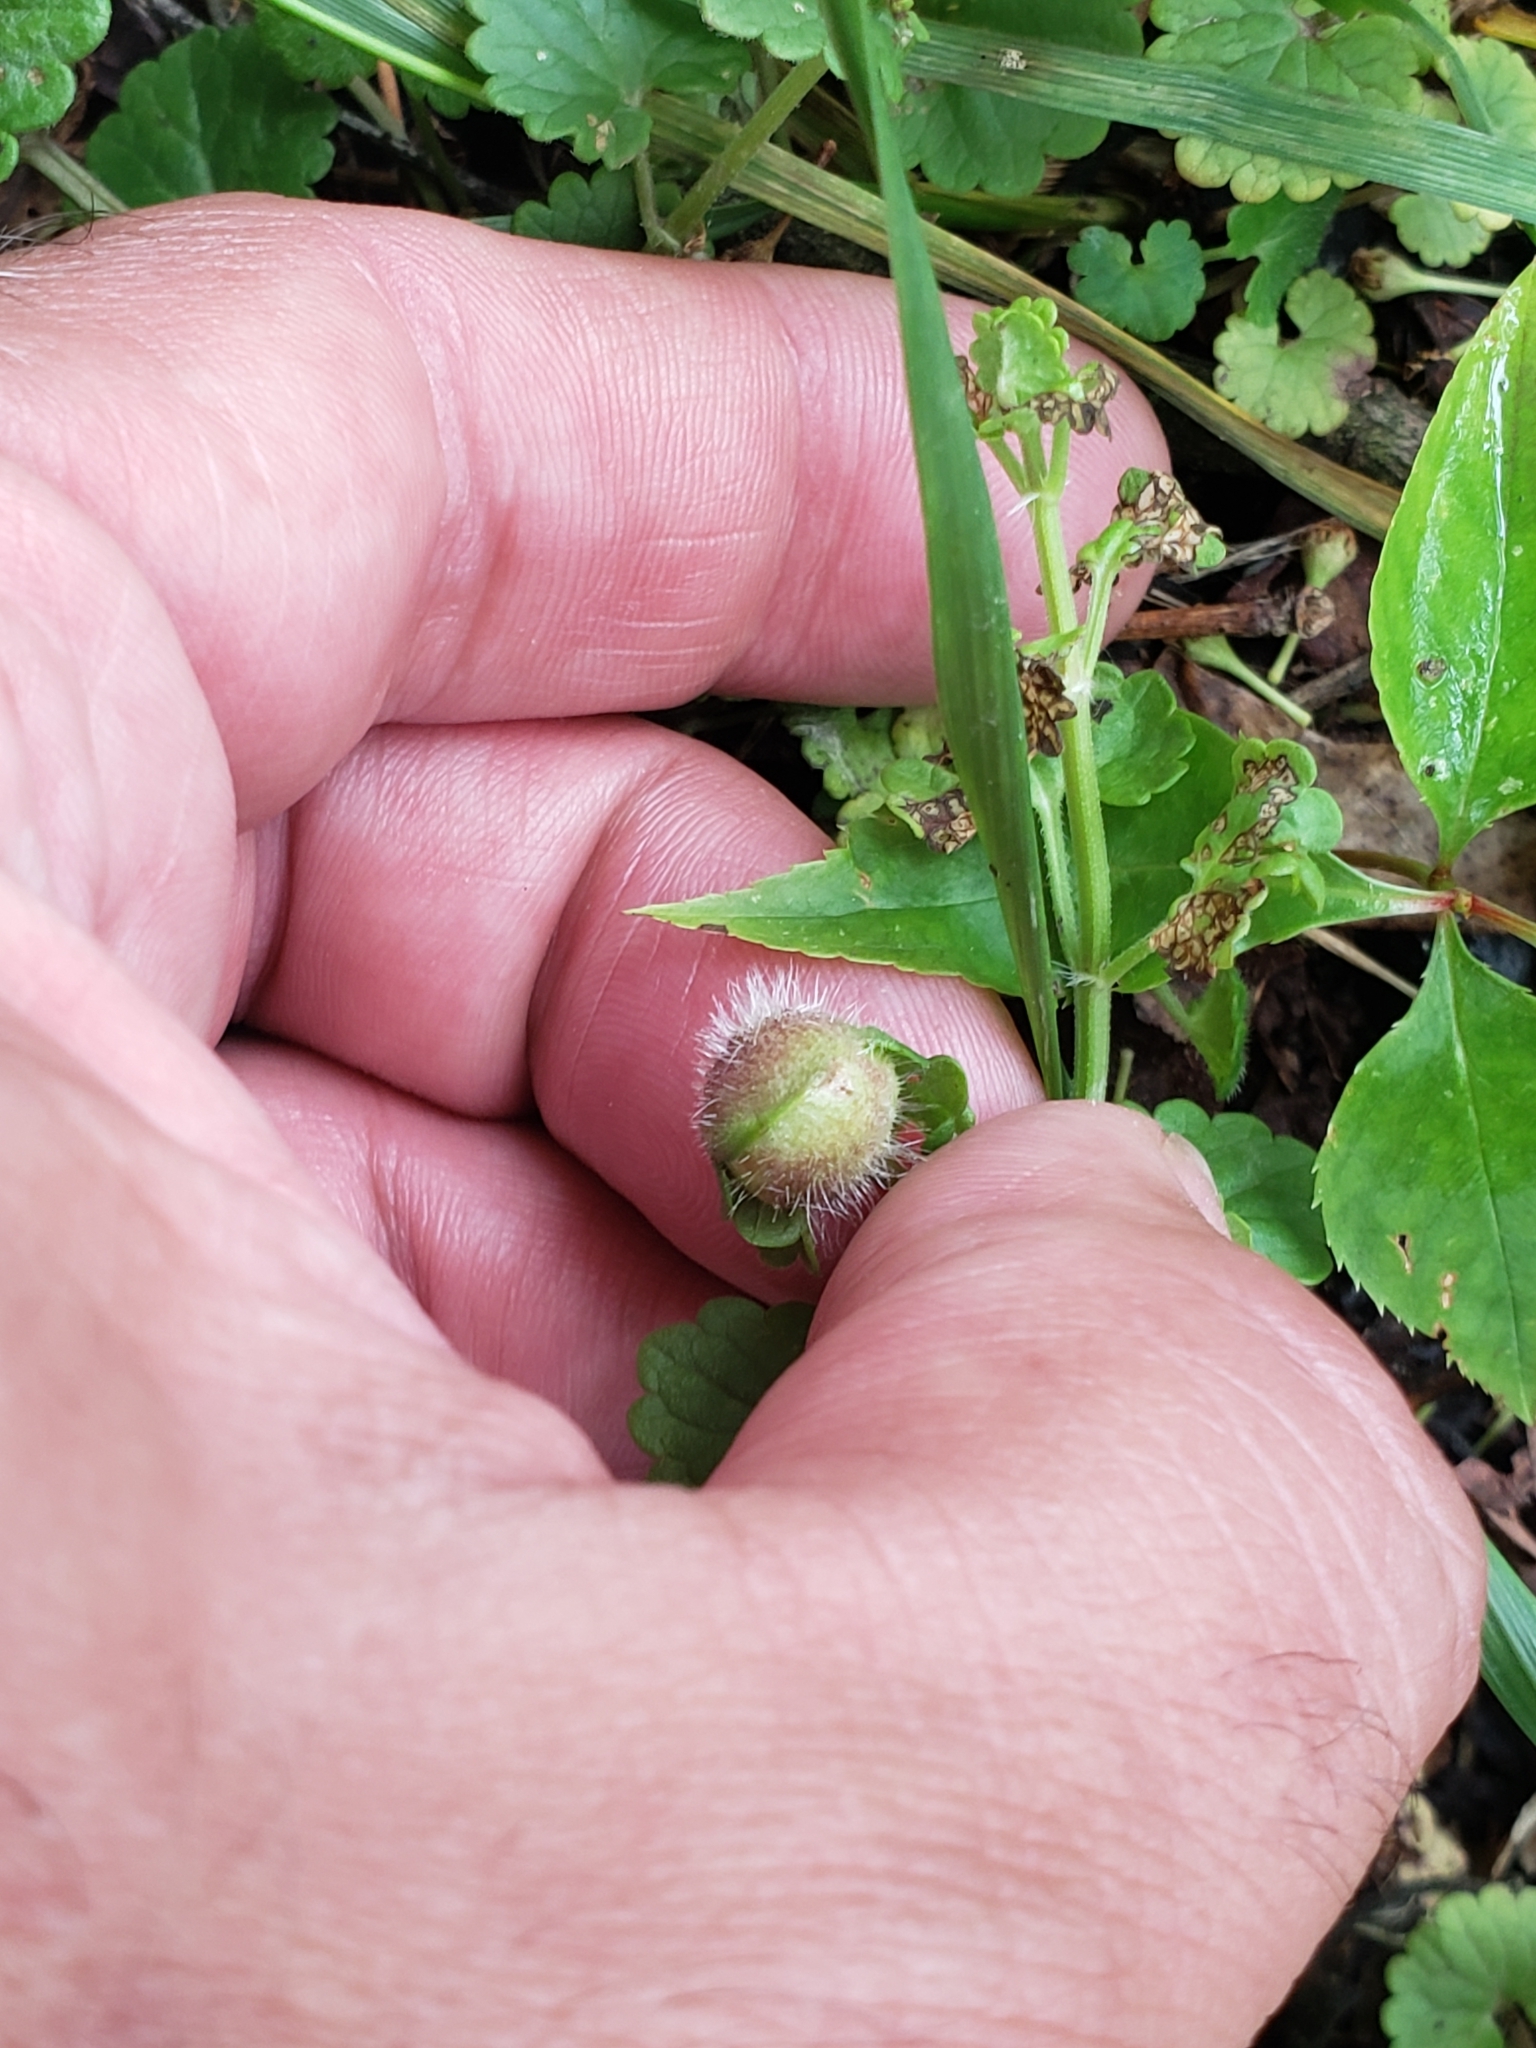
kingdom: Animalia
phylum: Arthropoda
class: Insecta
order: Hymenoptera
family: Cynipidae
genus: Liposthenes
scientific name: Liposthenes glechomae
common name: Gall wasp
